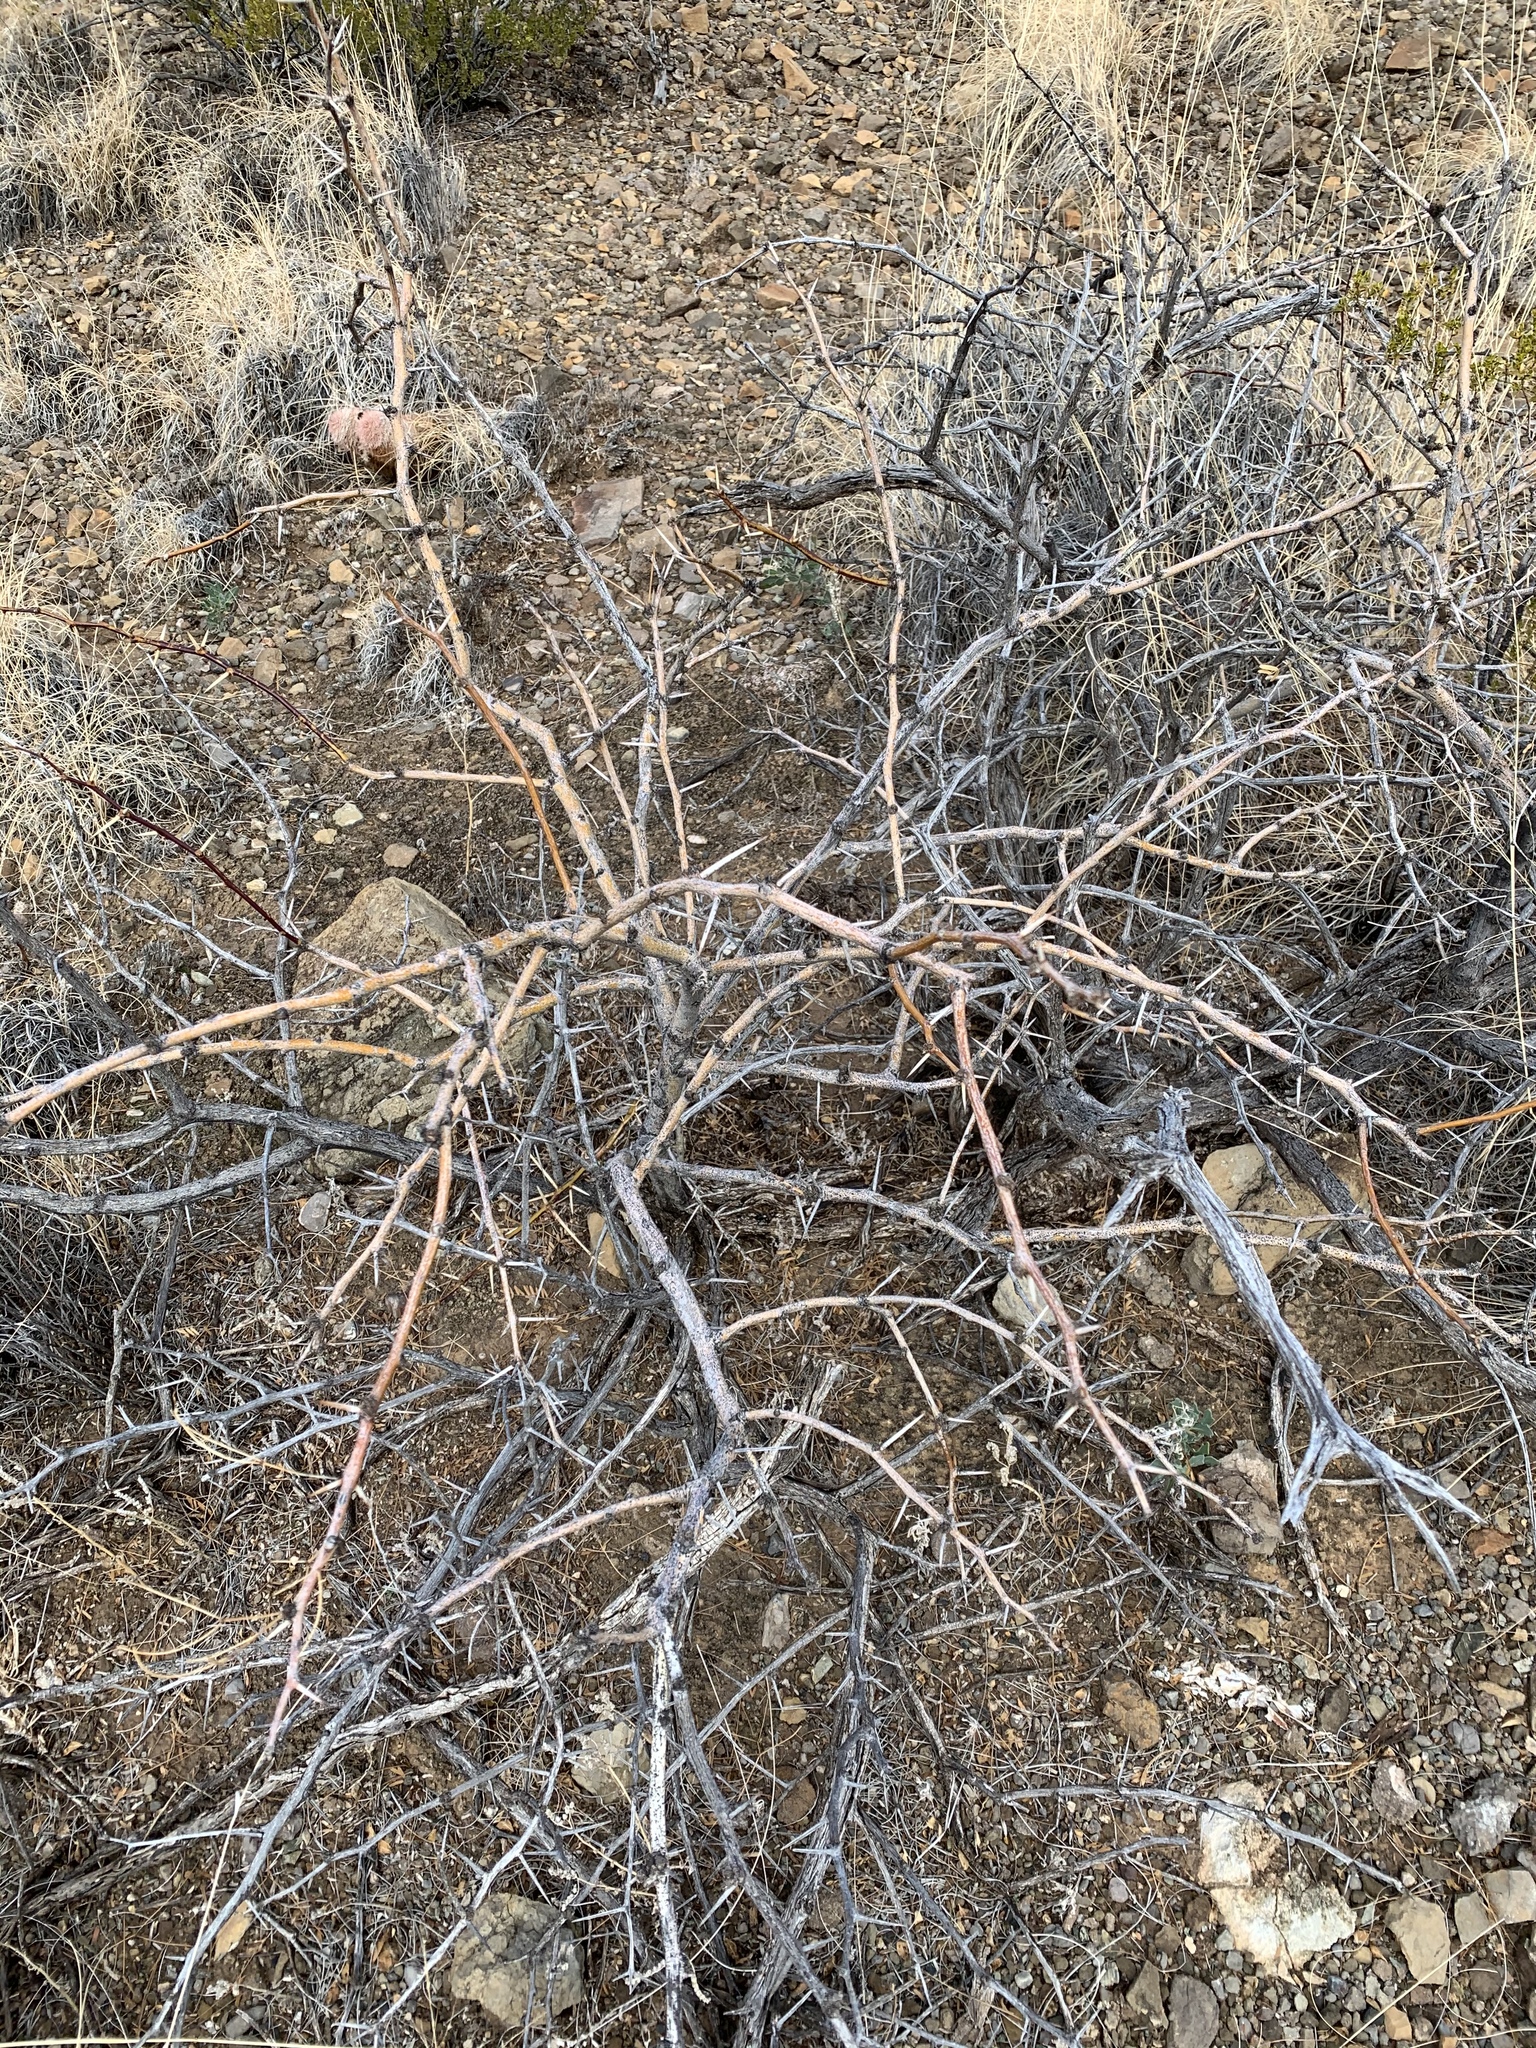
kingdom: Plantae
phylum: Tracheophyta
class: Magnoliopsida
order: Fabales
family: Fabaceae
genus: Prosopis
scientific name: Prosopis glandulosa
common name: Honey mesquite
